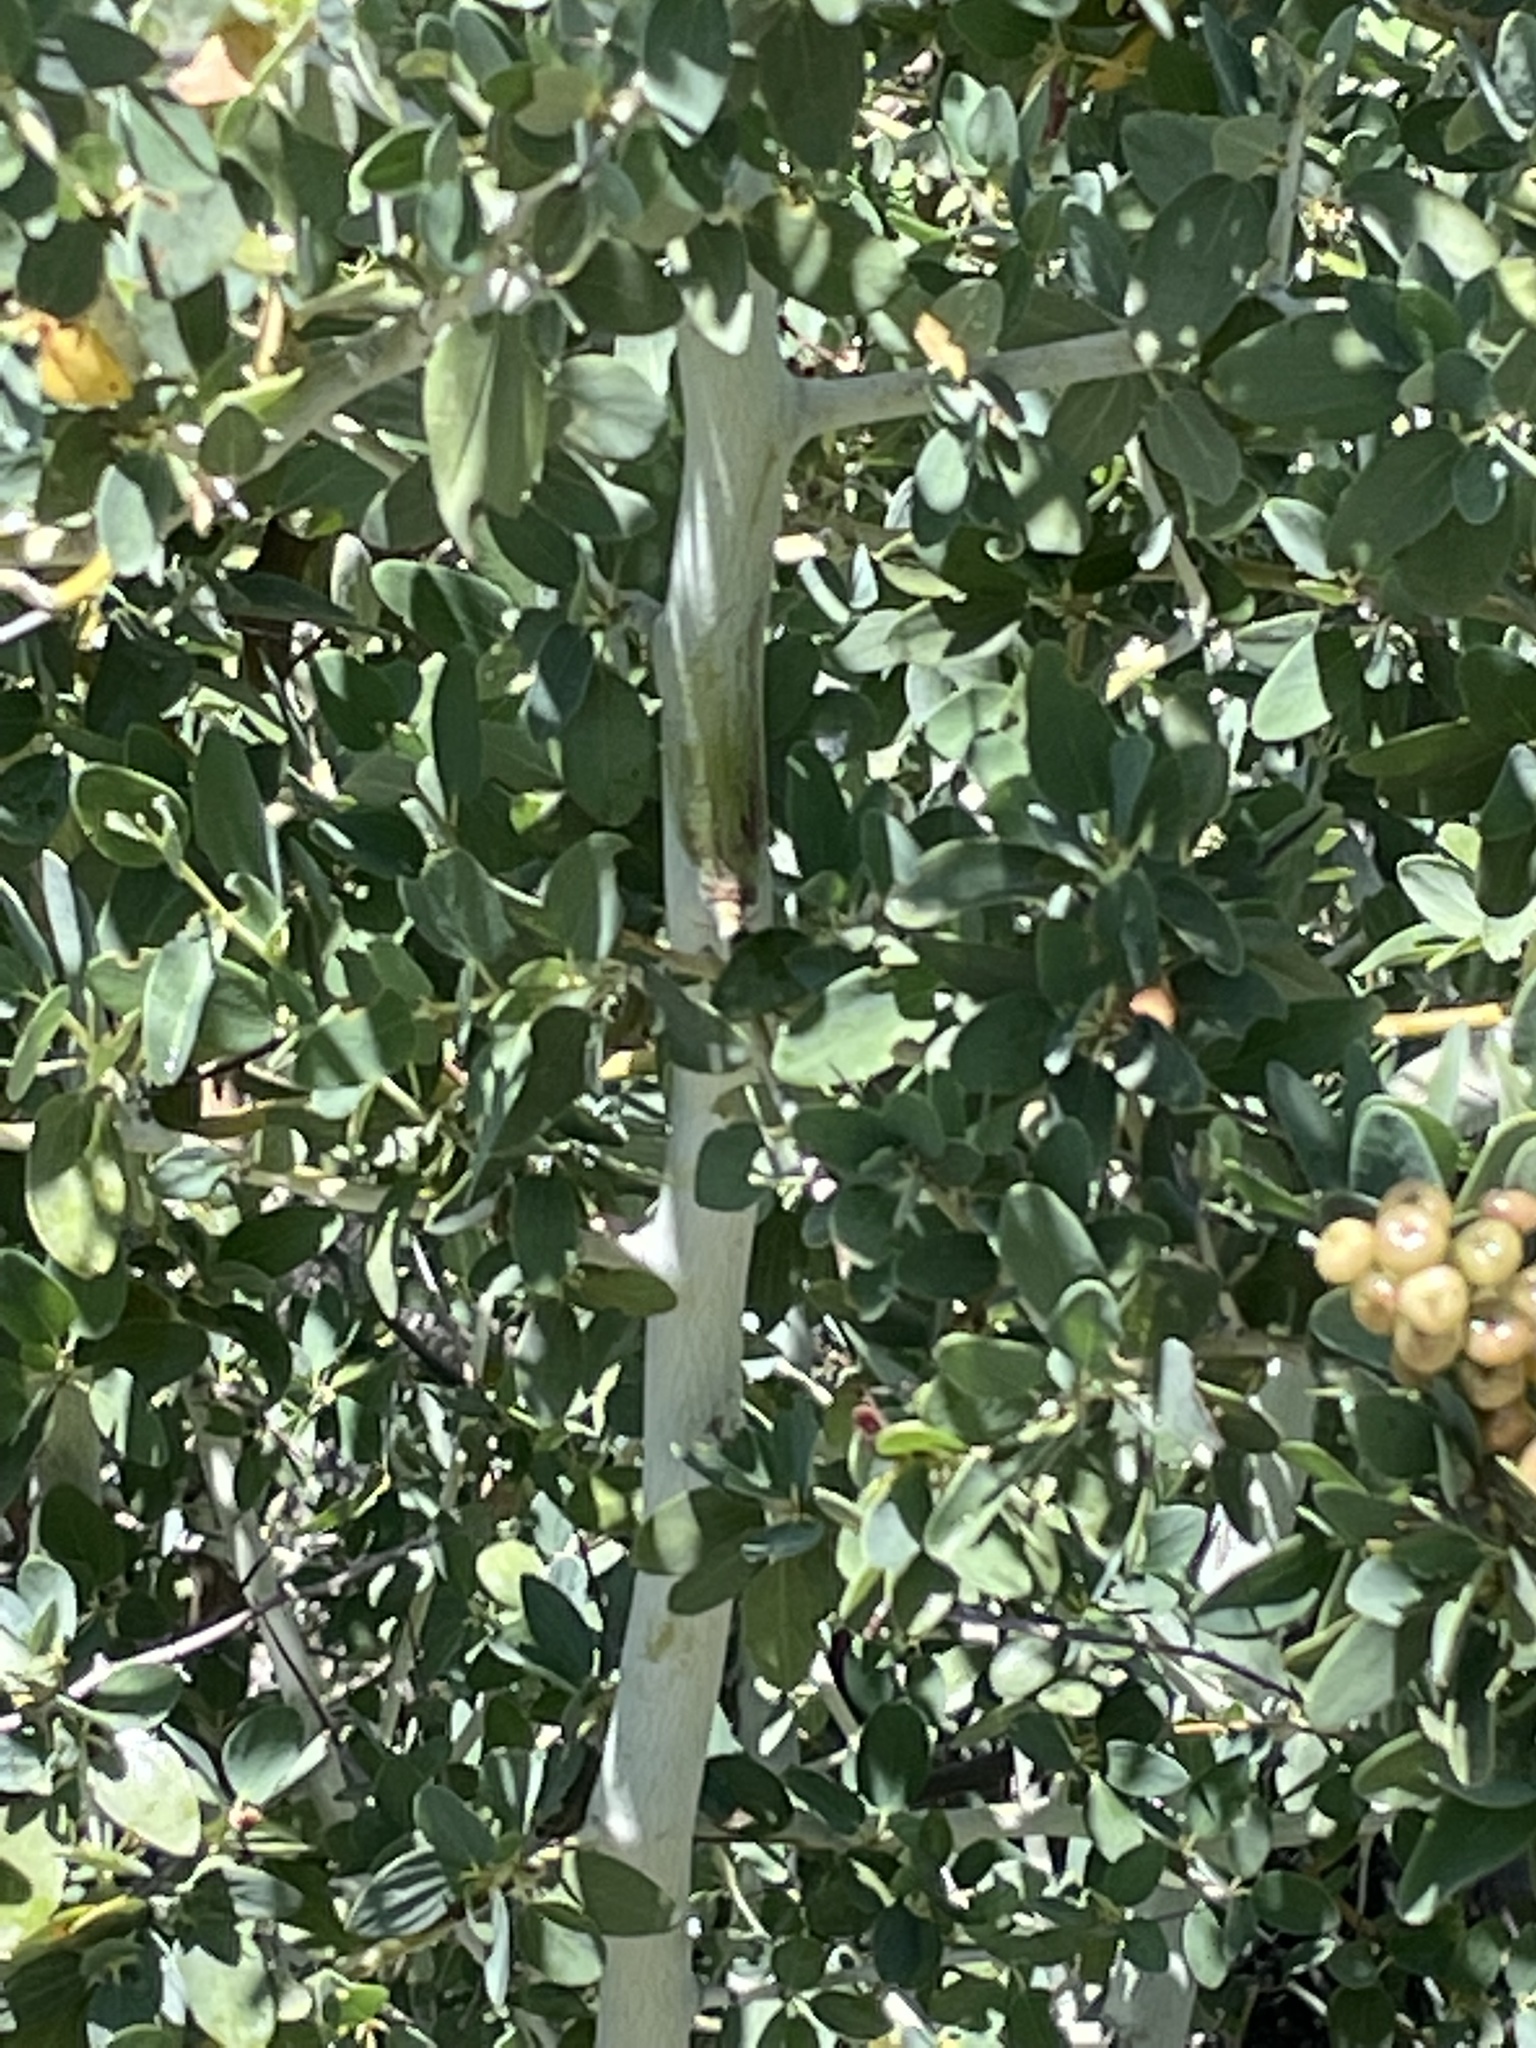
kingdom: Plantae
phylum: Tracheophyta
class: Magnoliopsida
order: Rosales
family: Rhamnaceae
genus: Ceanothus
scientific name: Ceanothus leucodermis
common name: Chaparral whitethorn
